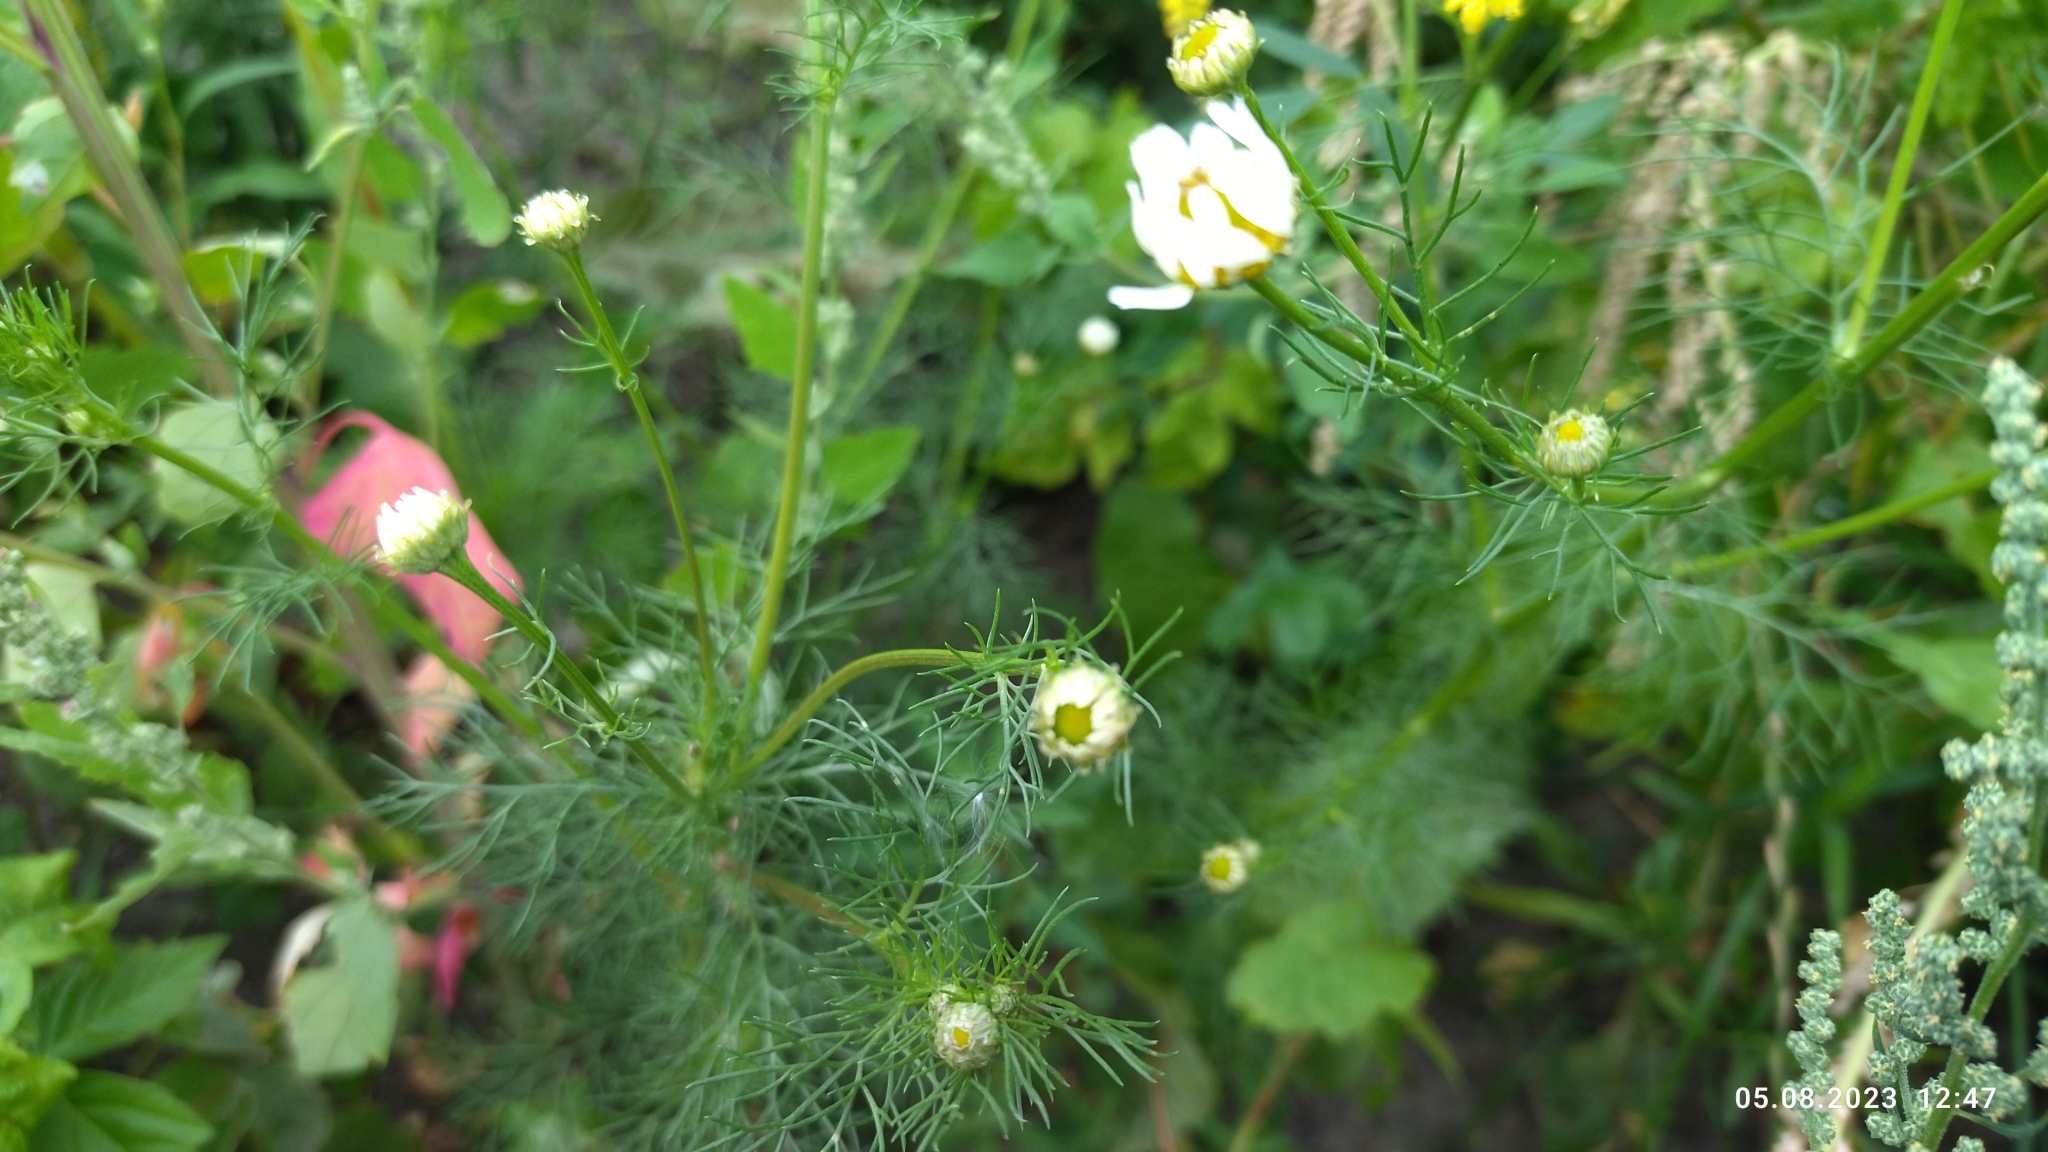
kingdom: Plantae
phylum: Tracheophyta
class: Magnoliopsida
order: Asterales
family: Asteraceae
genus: Tripleurospermum
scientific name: Tripleurospermum inodorum
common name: Scentless mayweed
